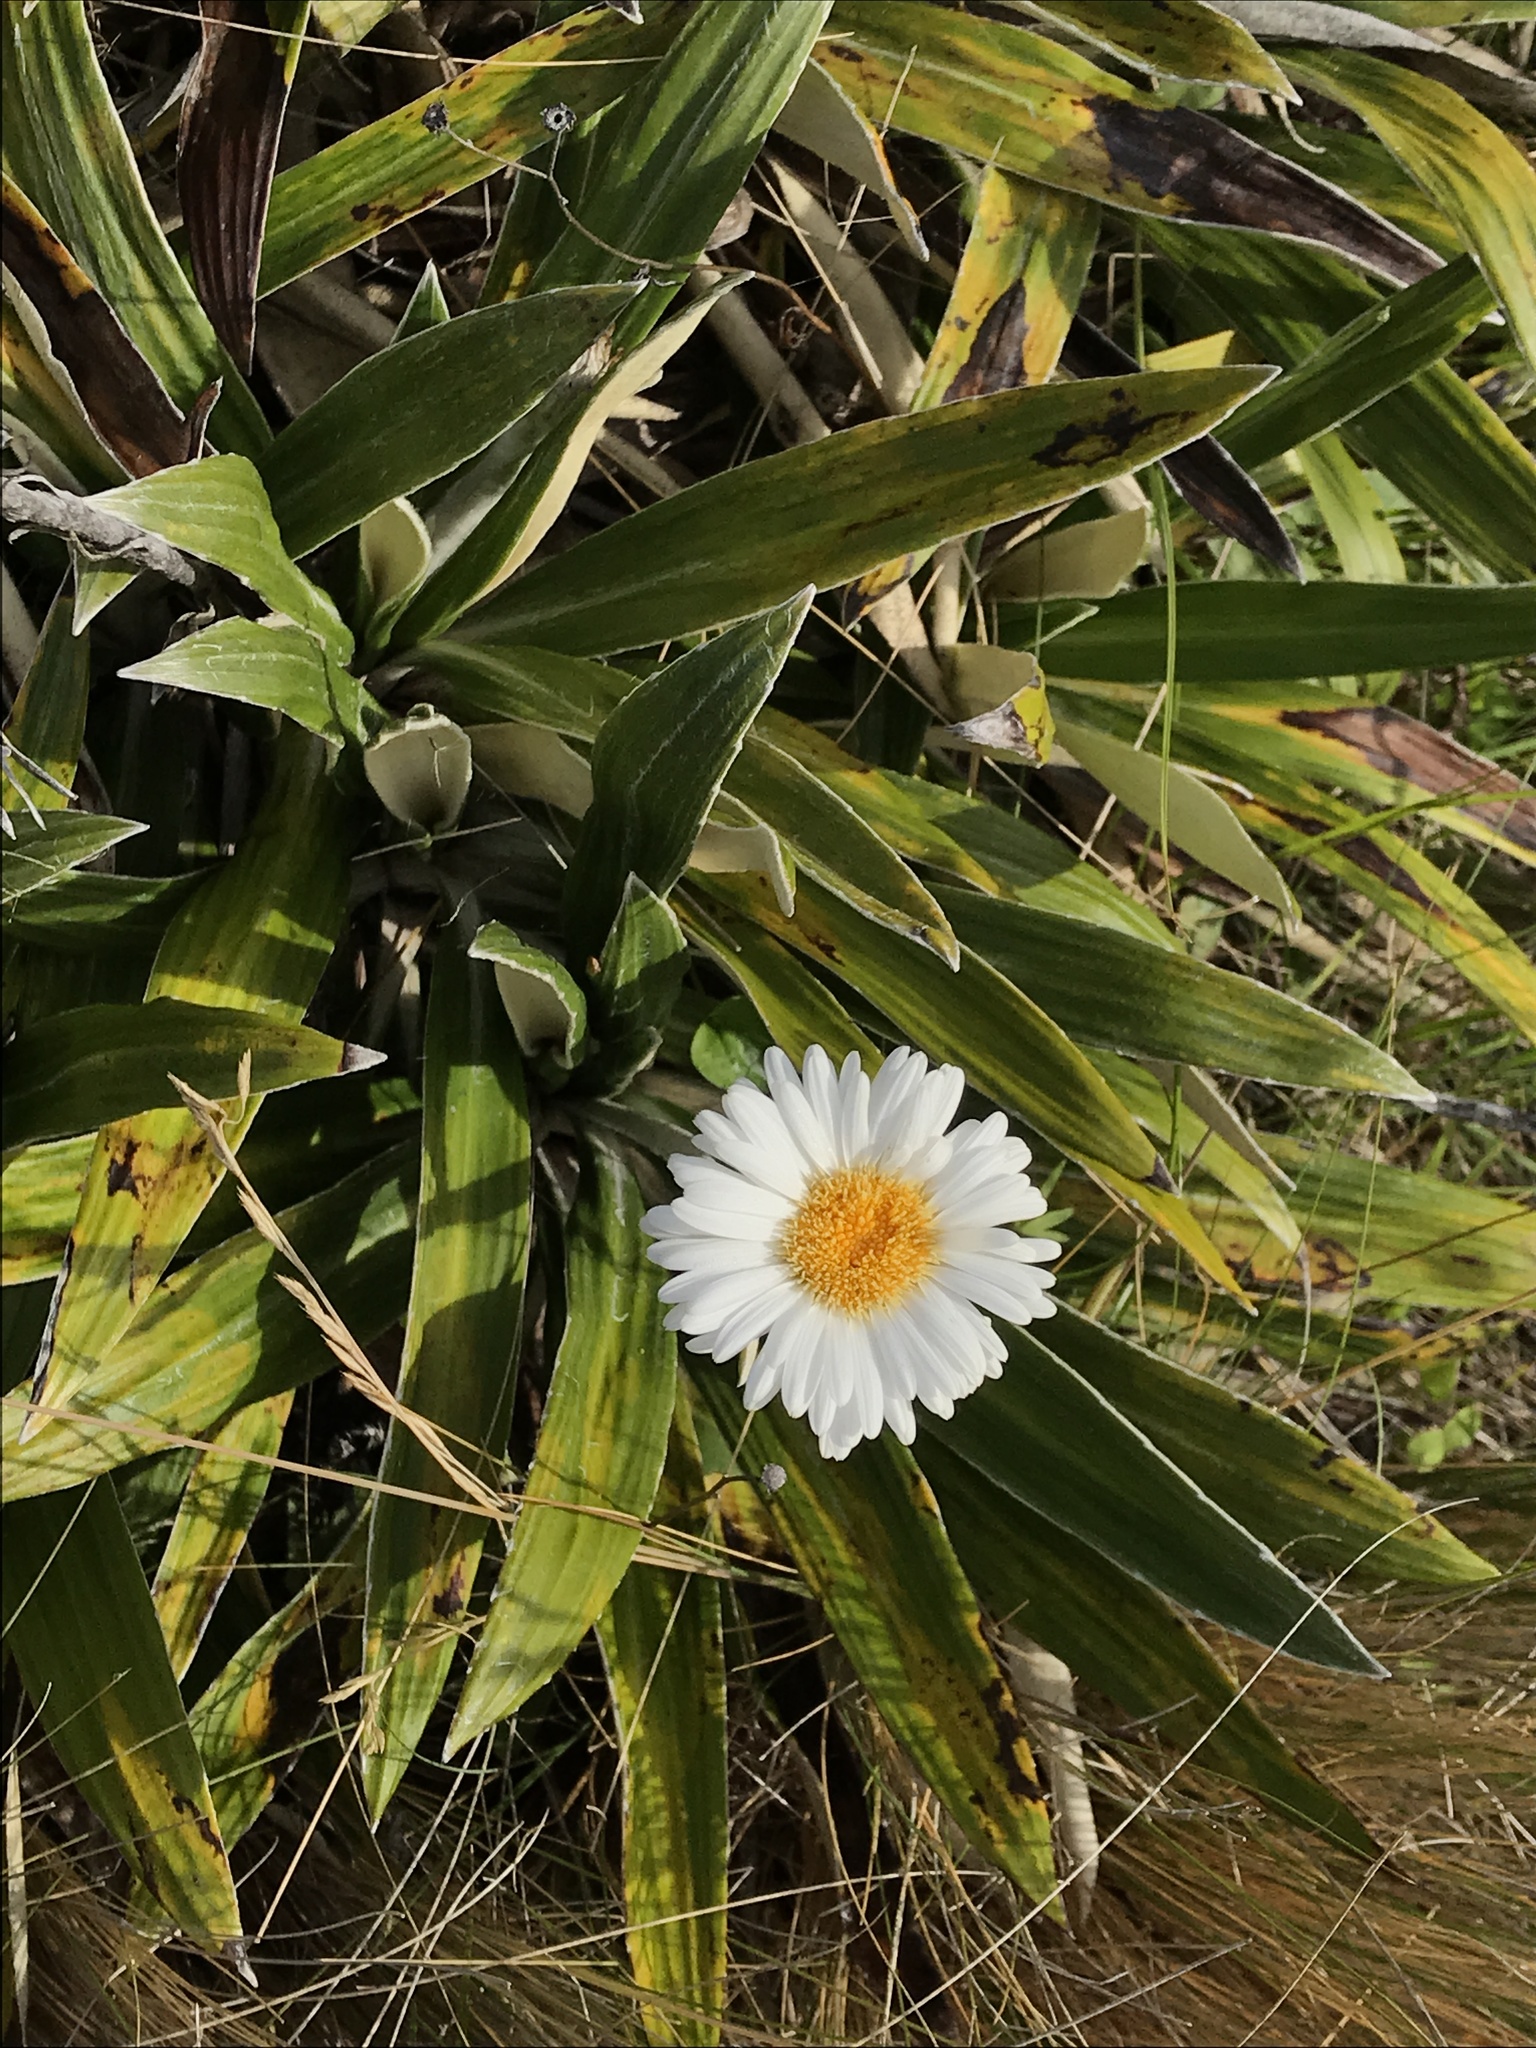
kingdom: Plantae
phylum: Tracheophyta
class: Magnoliopsida
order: Asterales
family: Asteraceae
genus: Celmisia
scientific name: Celmisia spectabilis
